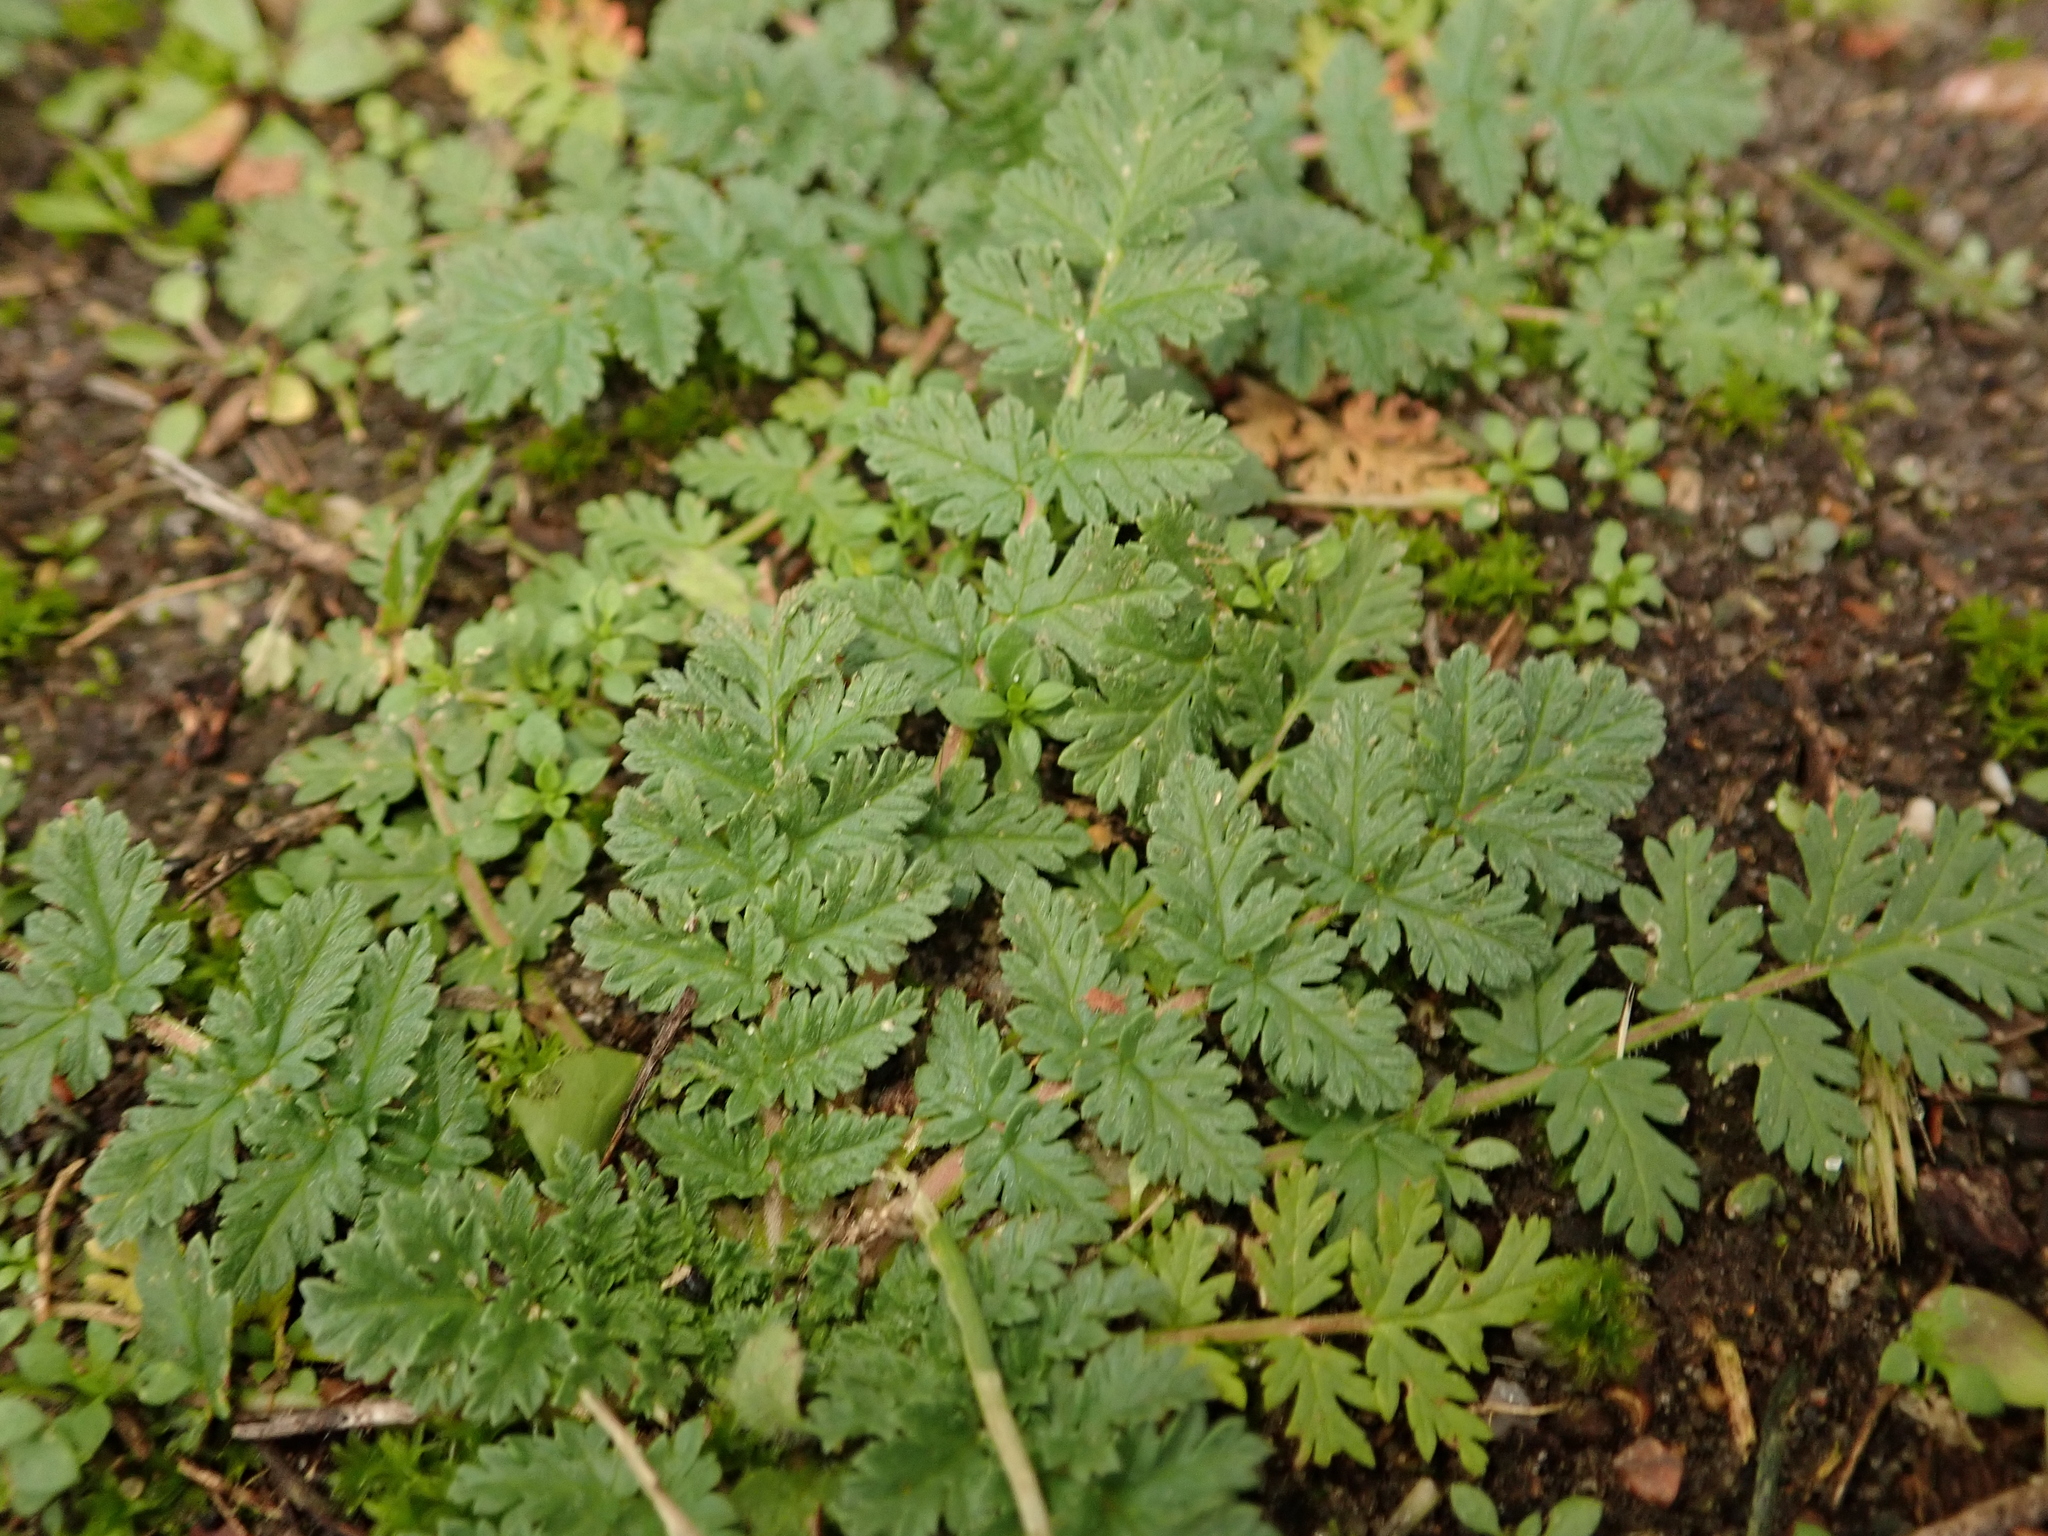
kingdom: Plantae
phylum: Tracheophyta
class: Magnoliopsida
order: Geraniales
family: Geraniaceae
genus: Erodium
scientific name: Erodium cicutarium
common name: Common stork's-bill
